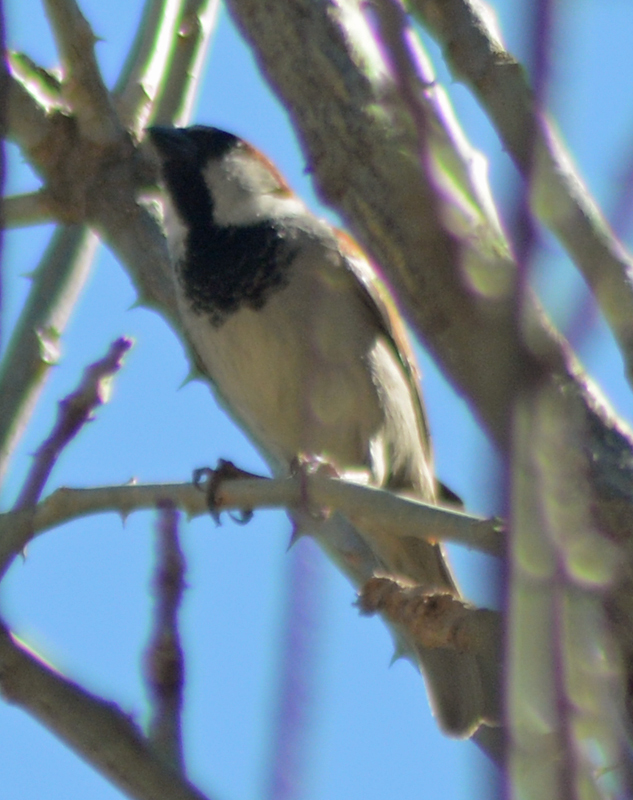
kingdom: Animalia
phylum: Chordata
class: Aves
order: Passeriformes
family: Passeridae
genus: Passer
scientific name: Passer domesticus
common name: House sparrow
